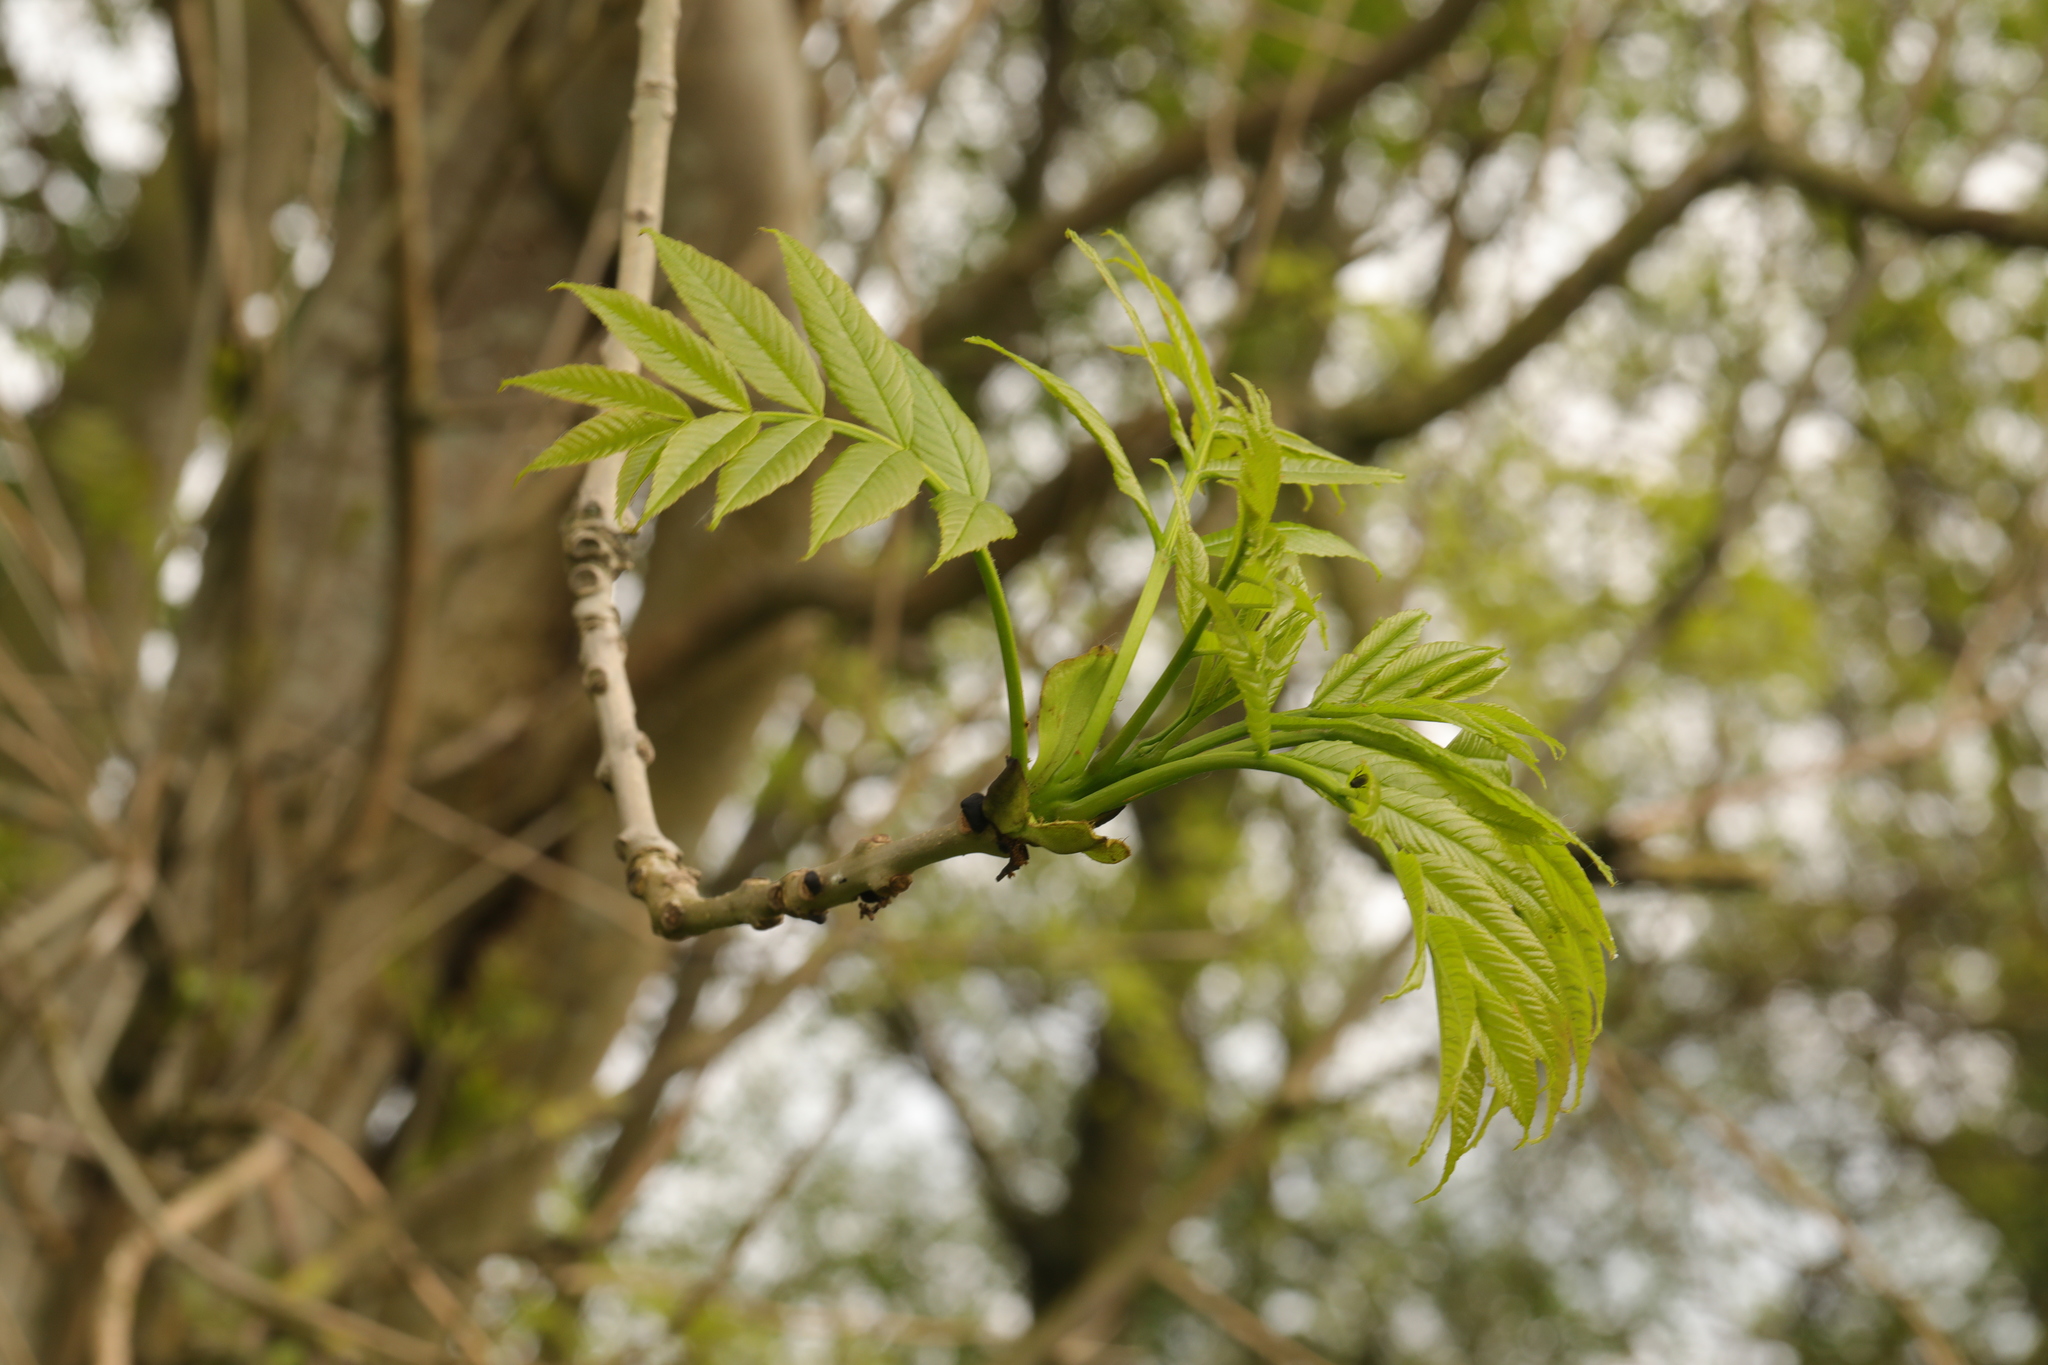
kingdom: Plantae
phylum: Tracheophyta
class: Magnoliopsida
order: Lamiales
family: Oleaceae
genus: Fraxinus
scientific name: Fraxinus excelsior
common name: European ash
